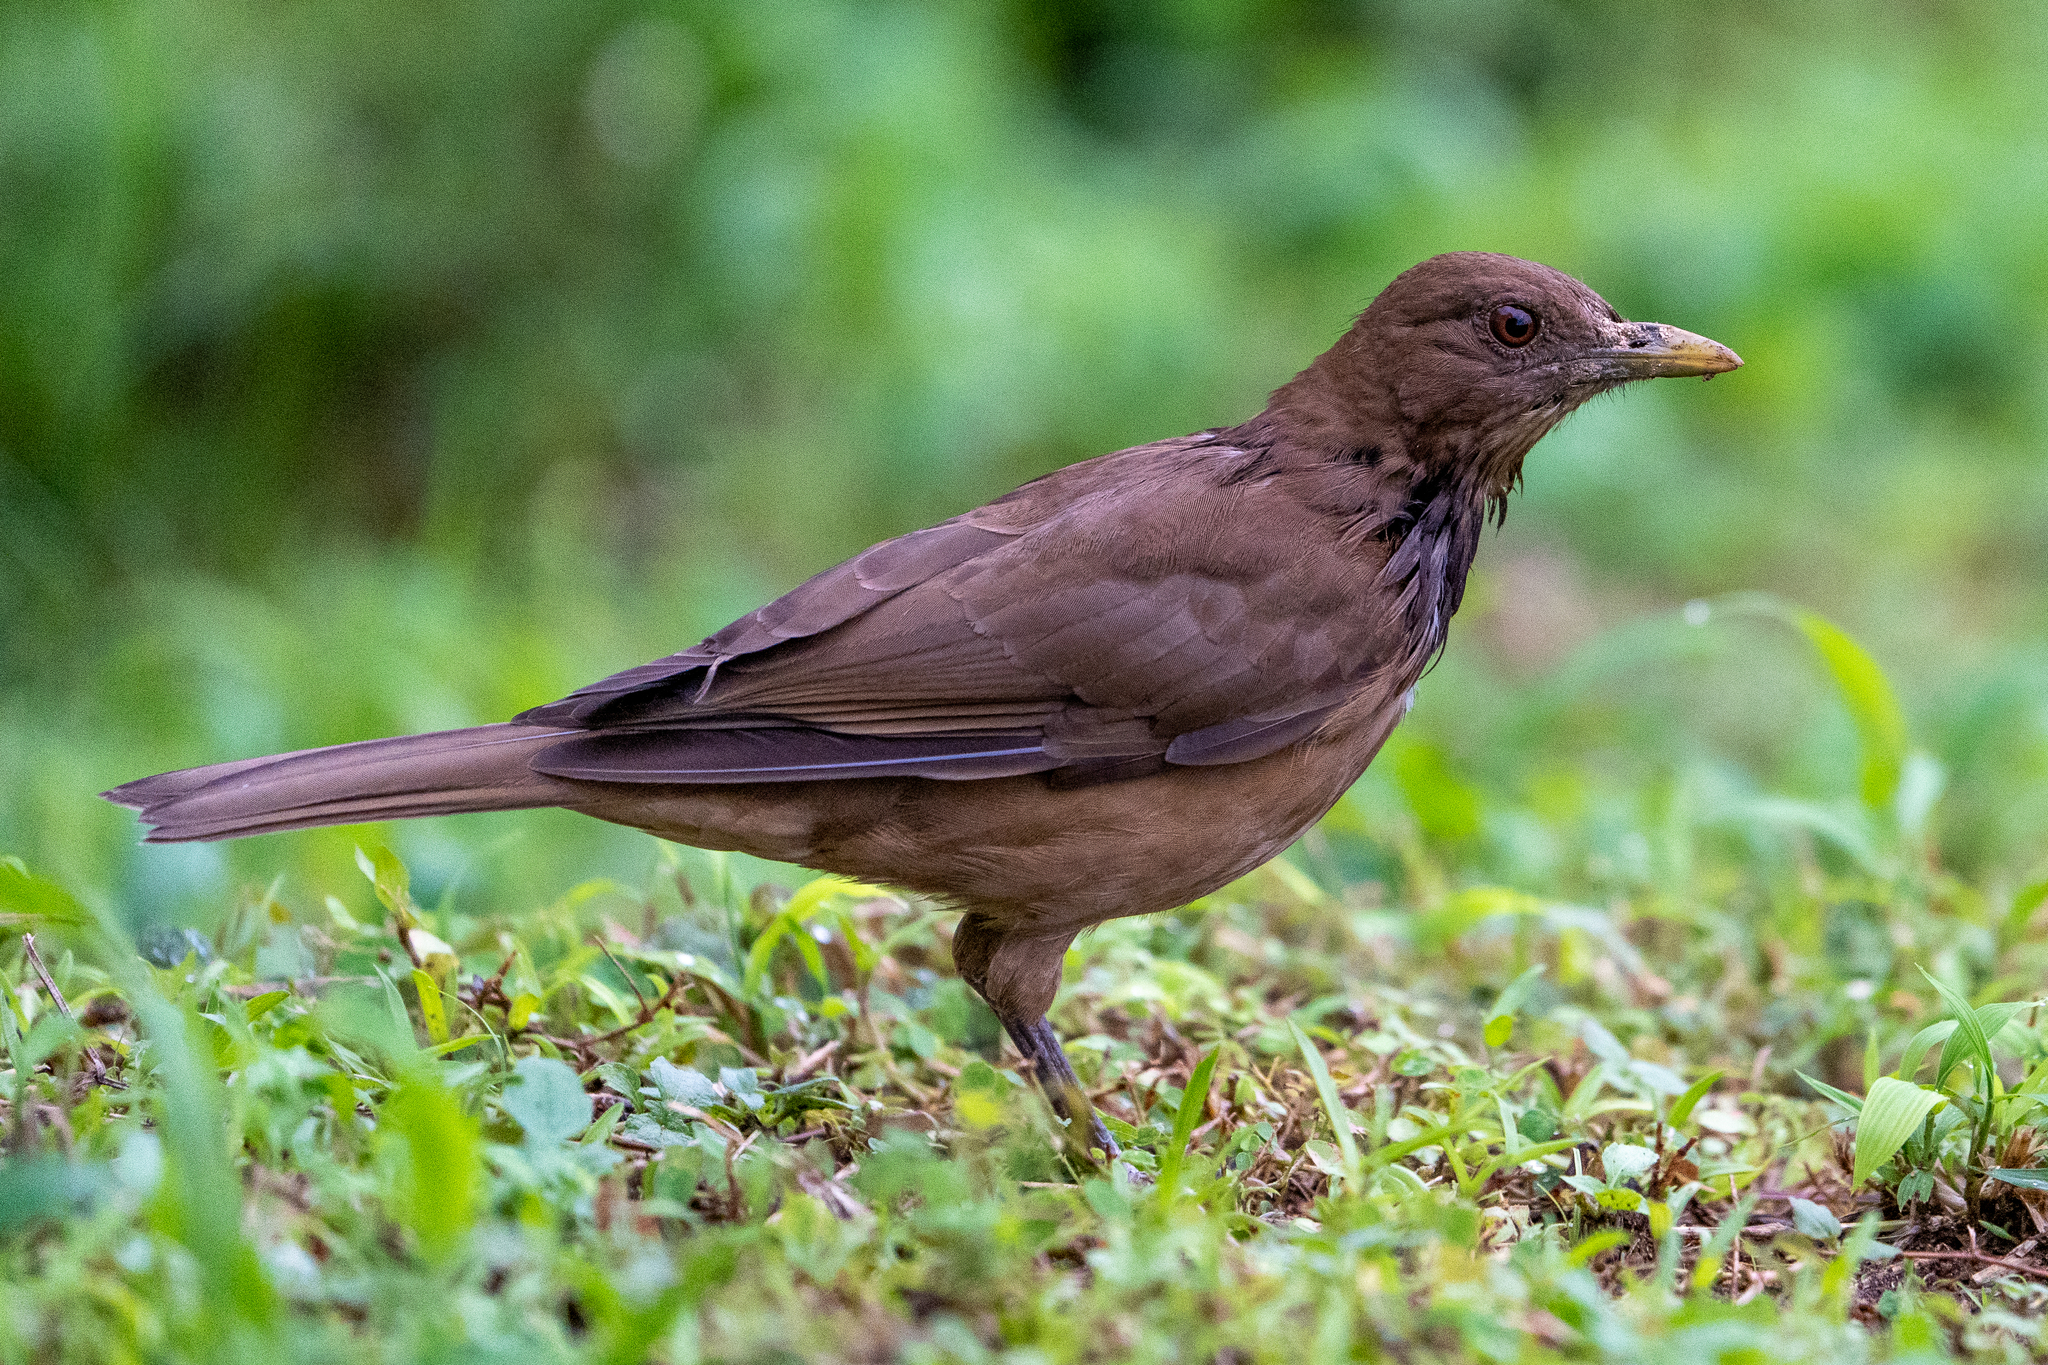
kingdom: Animalia
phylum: Chordata
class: Aves
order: Passeriformes
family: Turdidae
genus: Turdus
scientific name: Turdus grayi
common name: Clay-colored thrush
